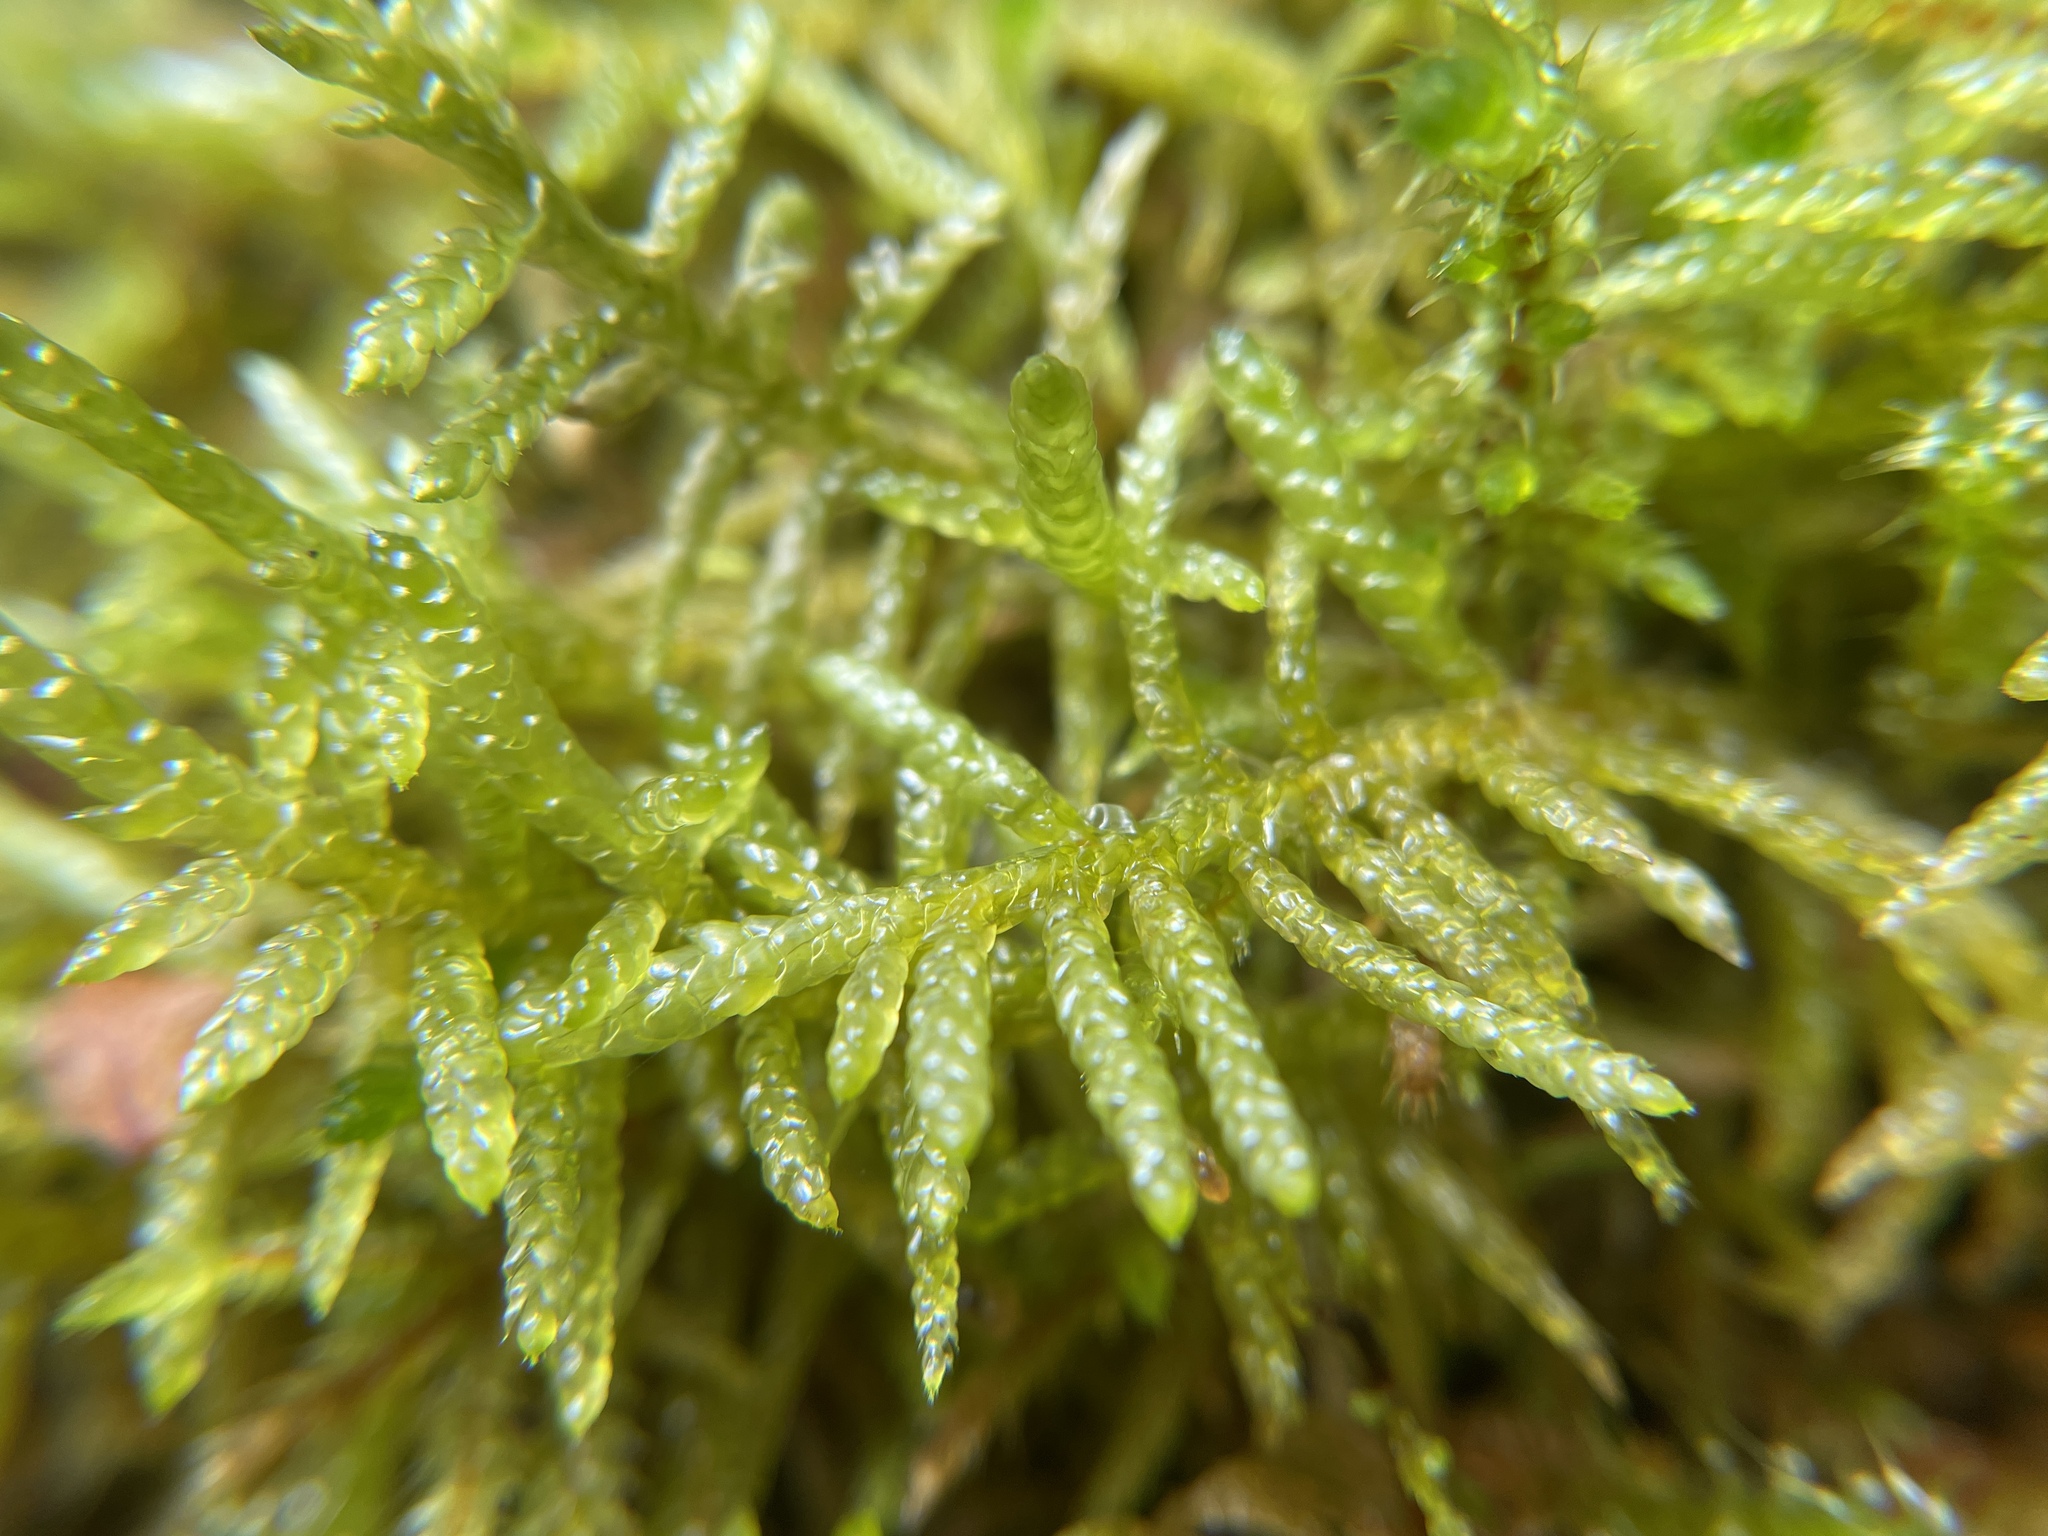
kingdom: Plantae
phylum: Bryophyta
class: Bryopsida
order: Hypnales
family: Brachytheciaceae
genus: Pseudoscleropodium
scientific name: Pseudoscleropodium purum
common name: Neat feather-moss
